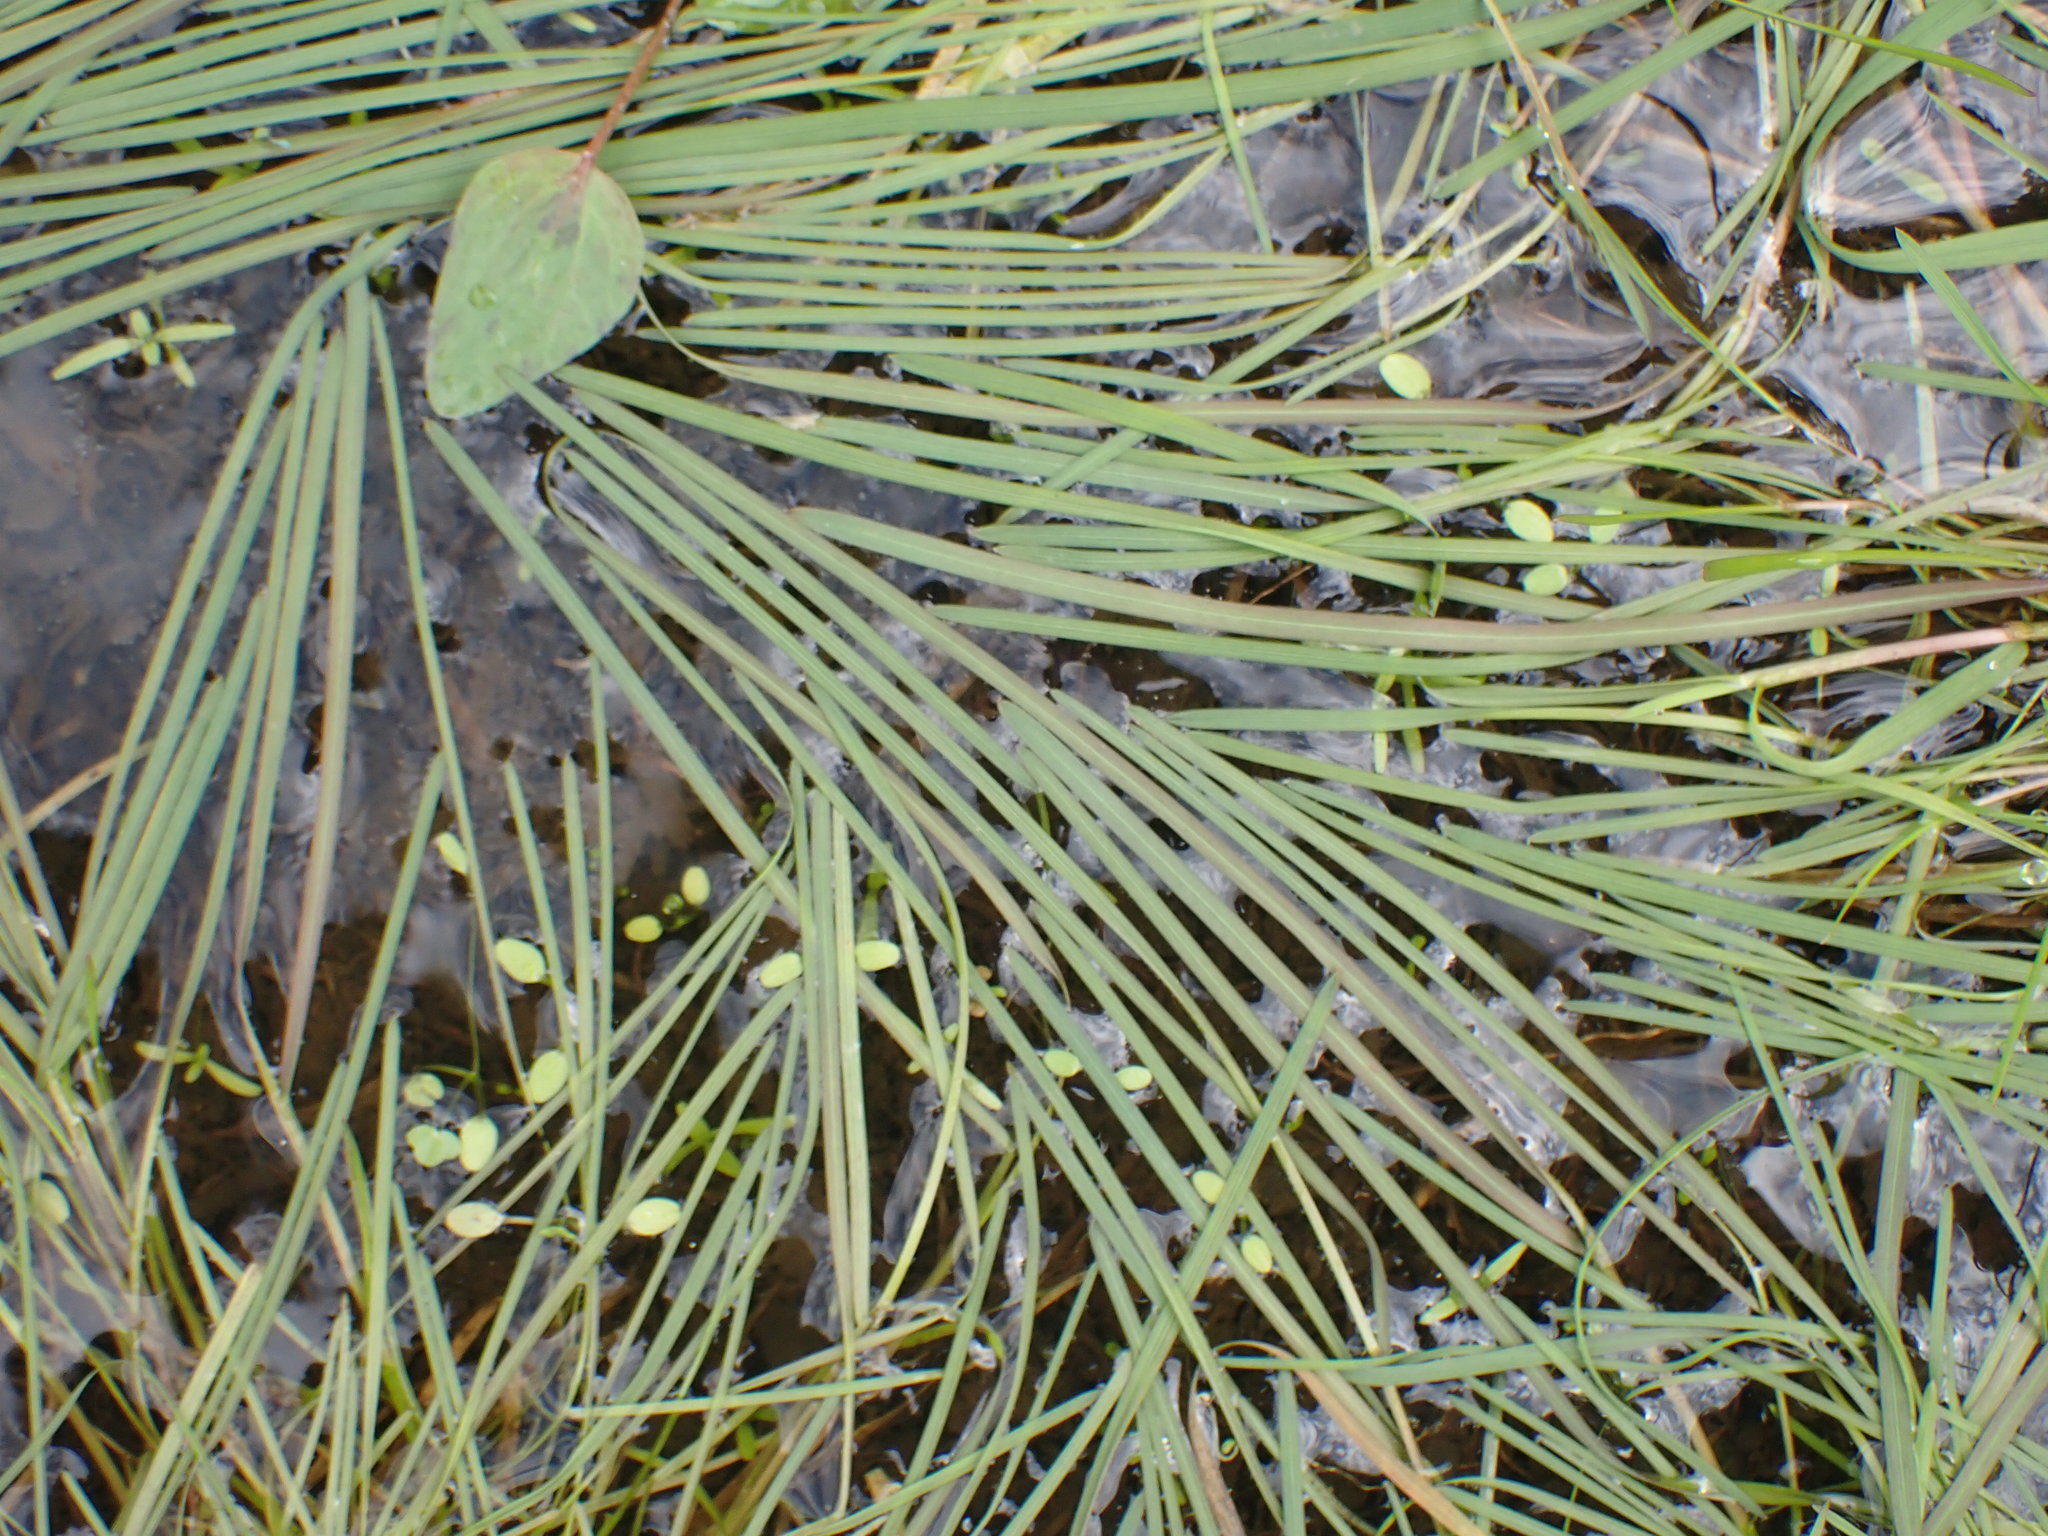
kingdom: Plantae
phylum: Tracheophyta
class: Liliopsida
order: Poales
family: Poaceae
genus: Glyceria
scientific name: Glyceria fluitans
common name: Floating sweet-grass
